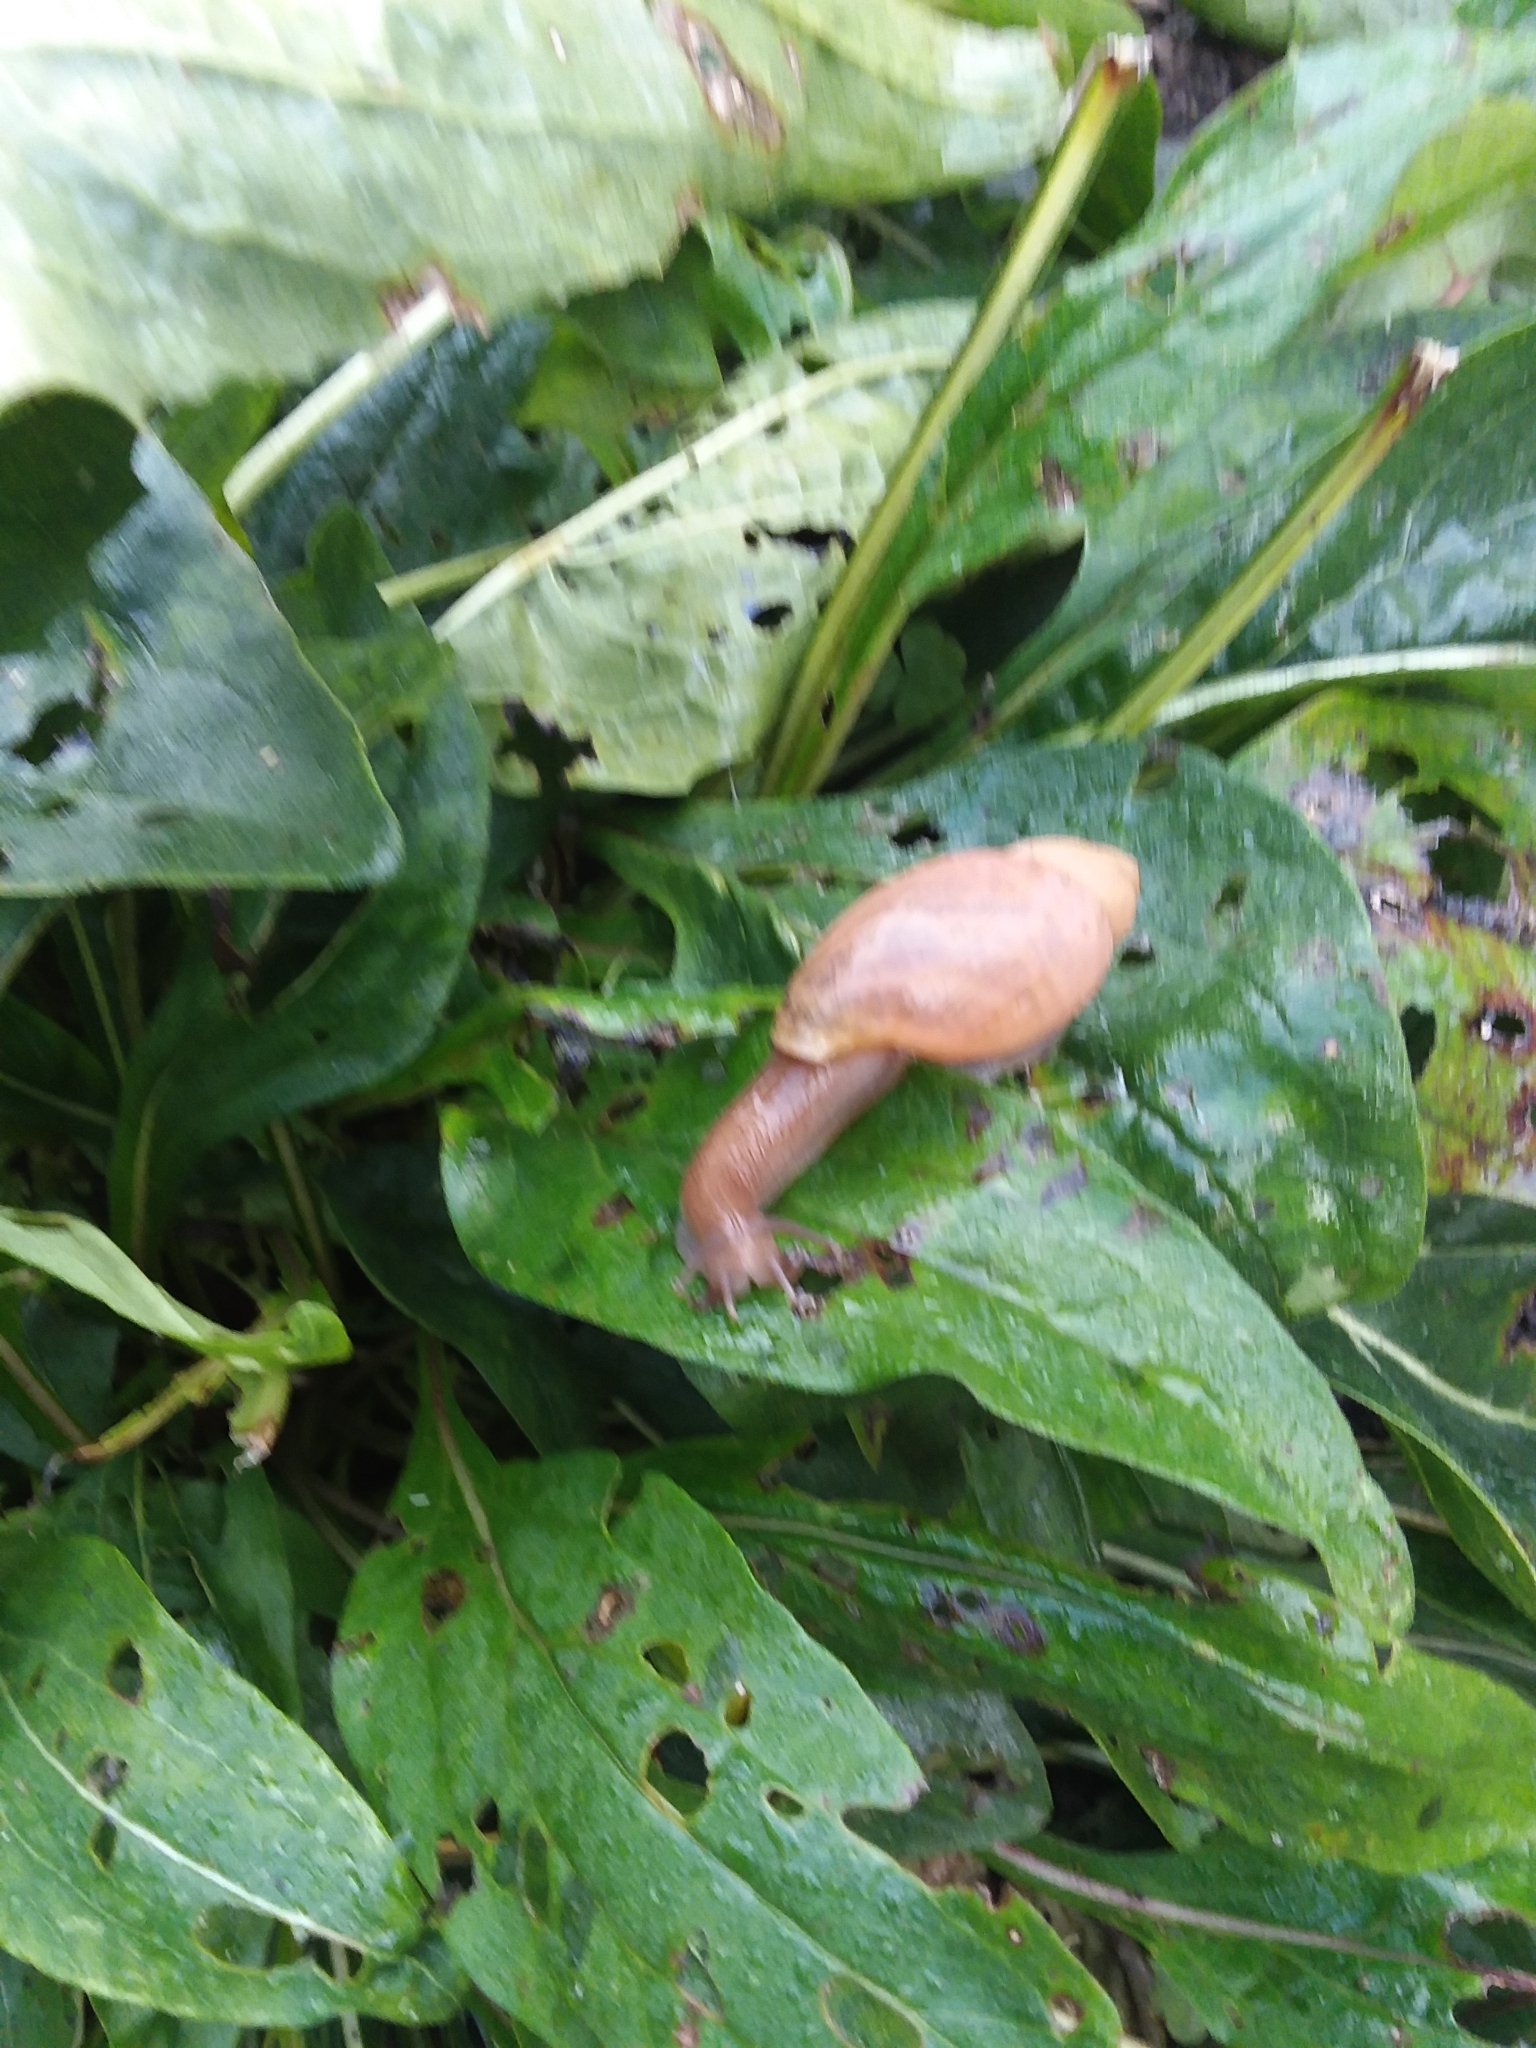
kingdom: Animalia
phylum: Mollusca
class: Gastropoda
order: Stylommatophora
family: Spiraxidae
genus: Euglandina
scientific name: Euglandina rosea
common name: Rosy wolfsnail
